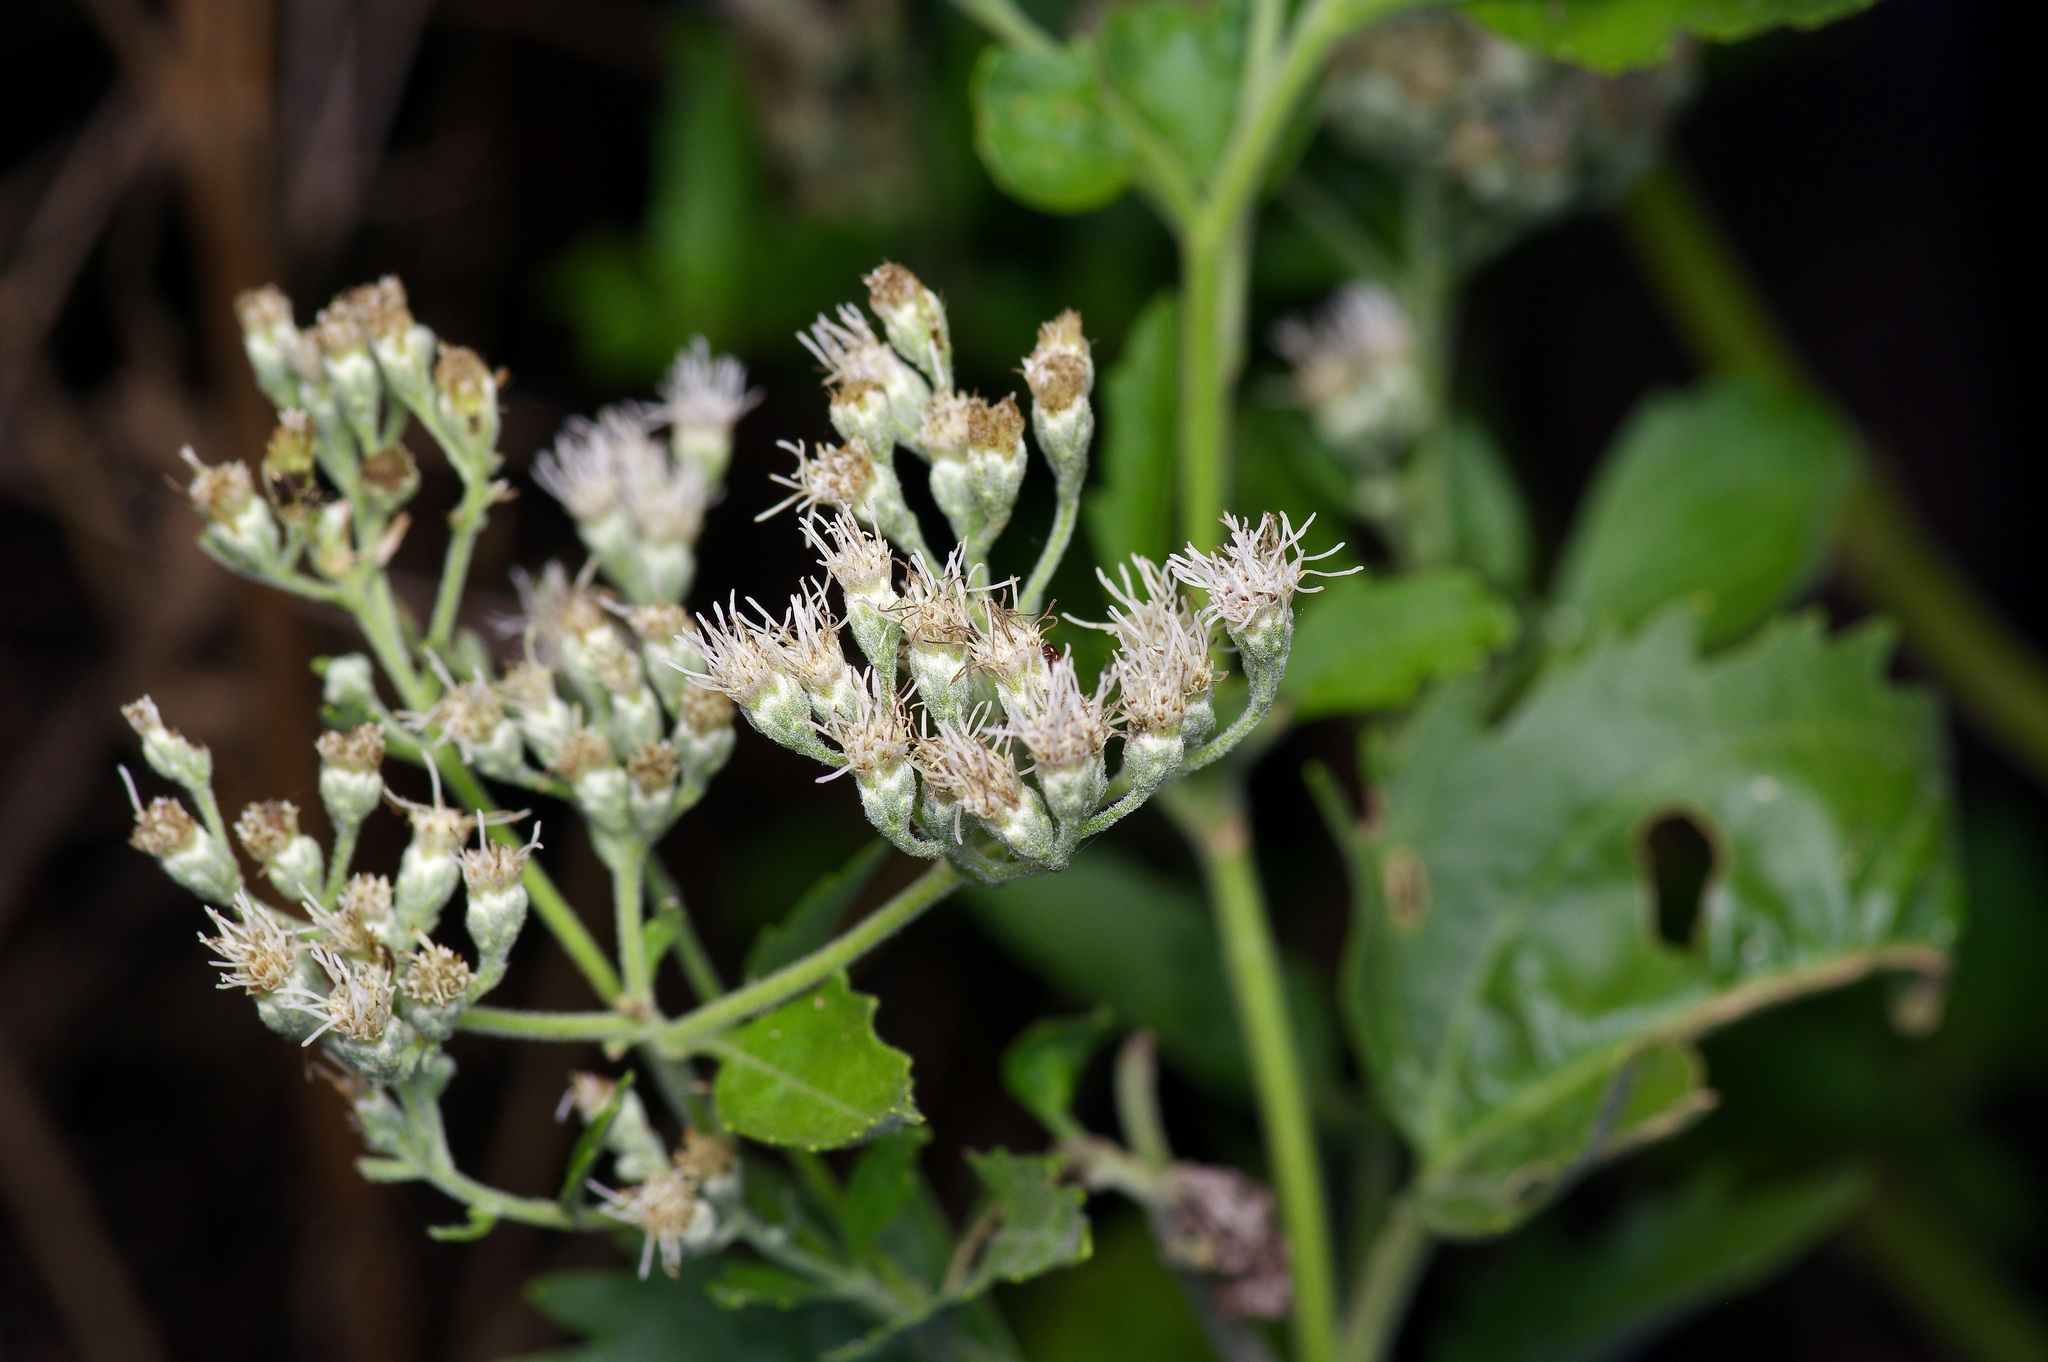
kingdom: Plantae
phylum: Tracheophyta
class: Magnoliopsida
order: Asterales
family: Asteraceae
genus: Eupatorium
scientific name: Eupatorium serotinum
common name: Late boneset
